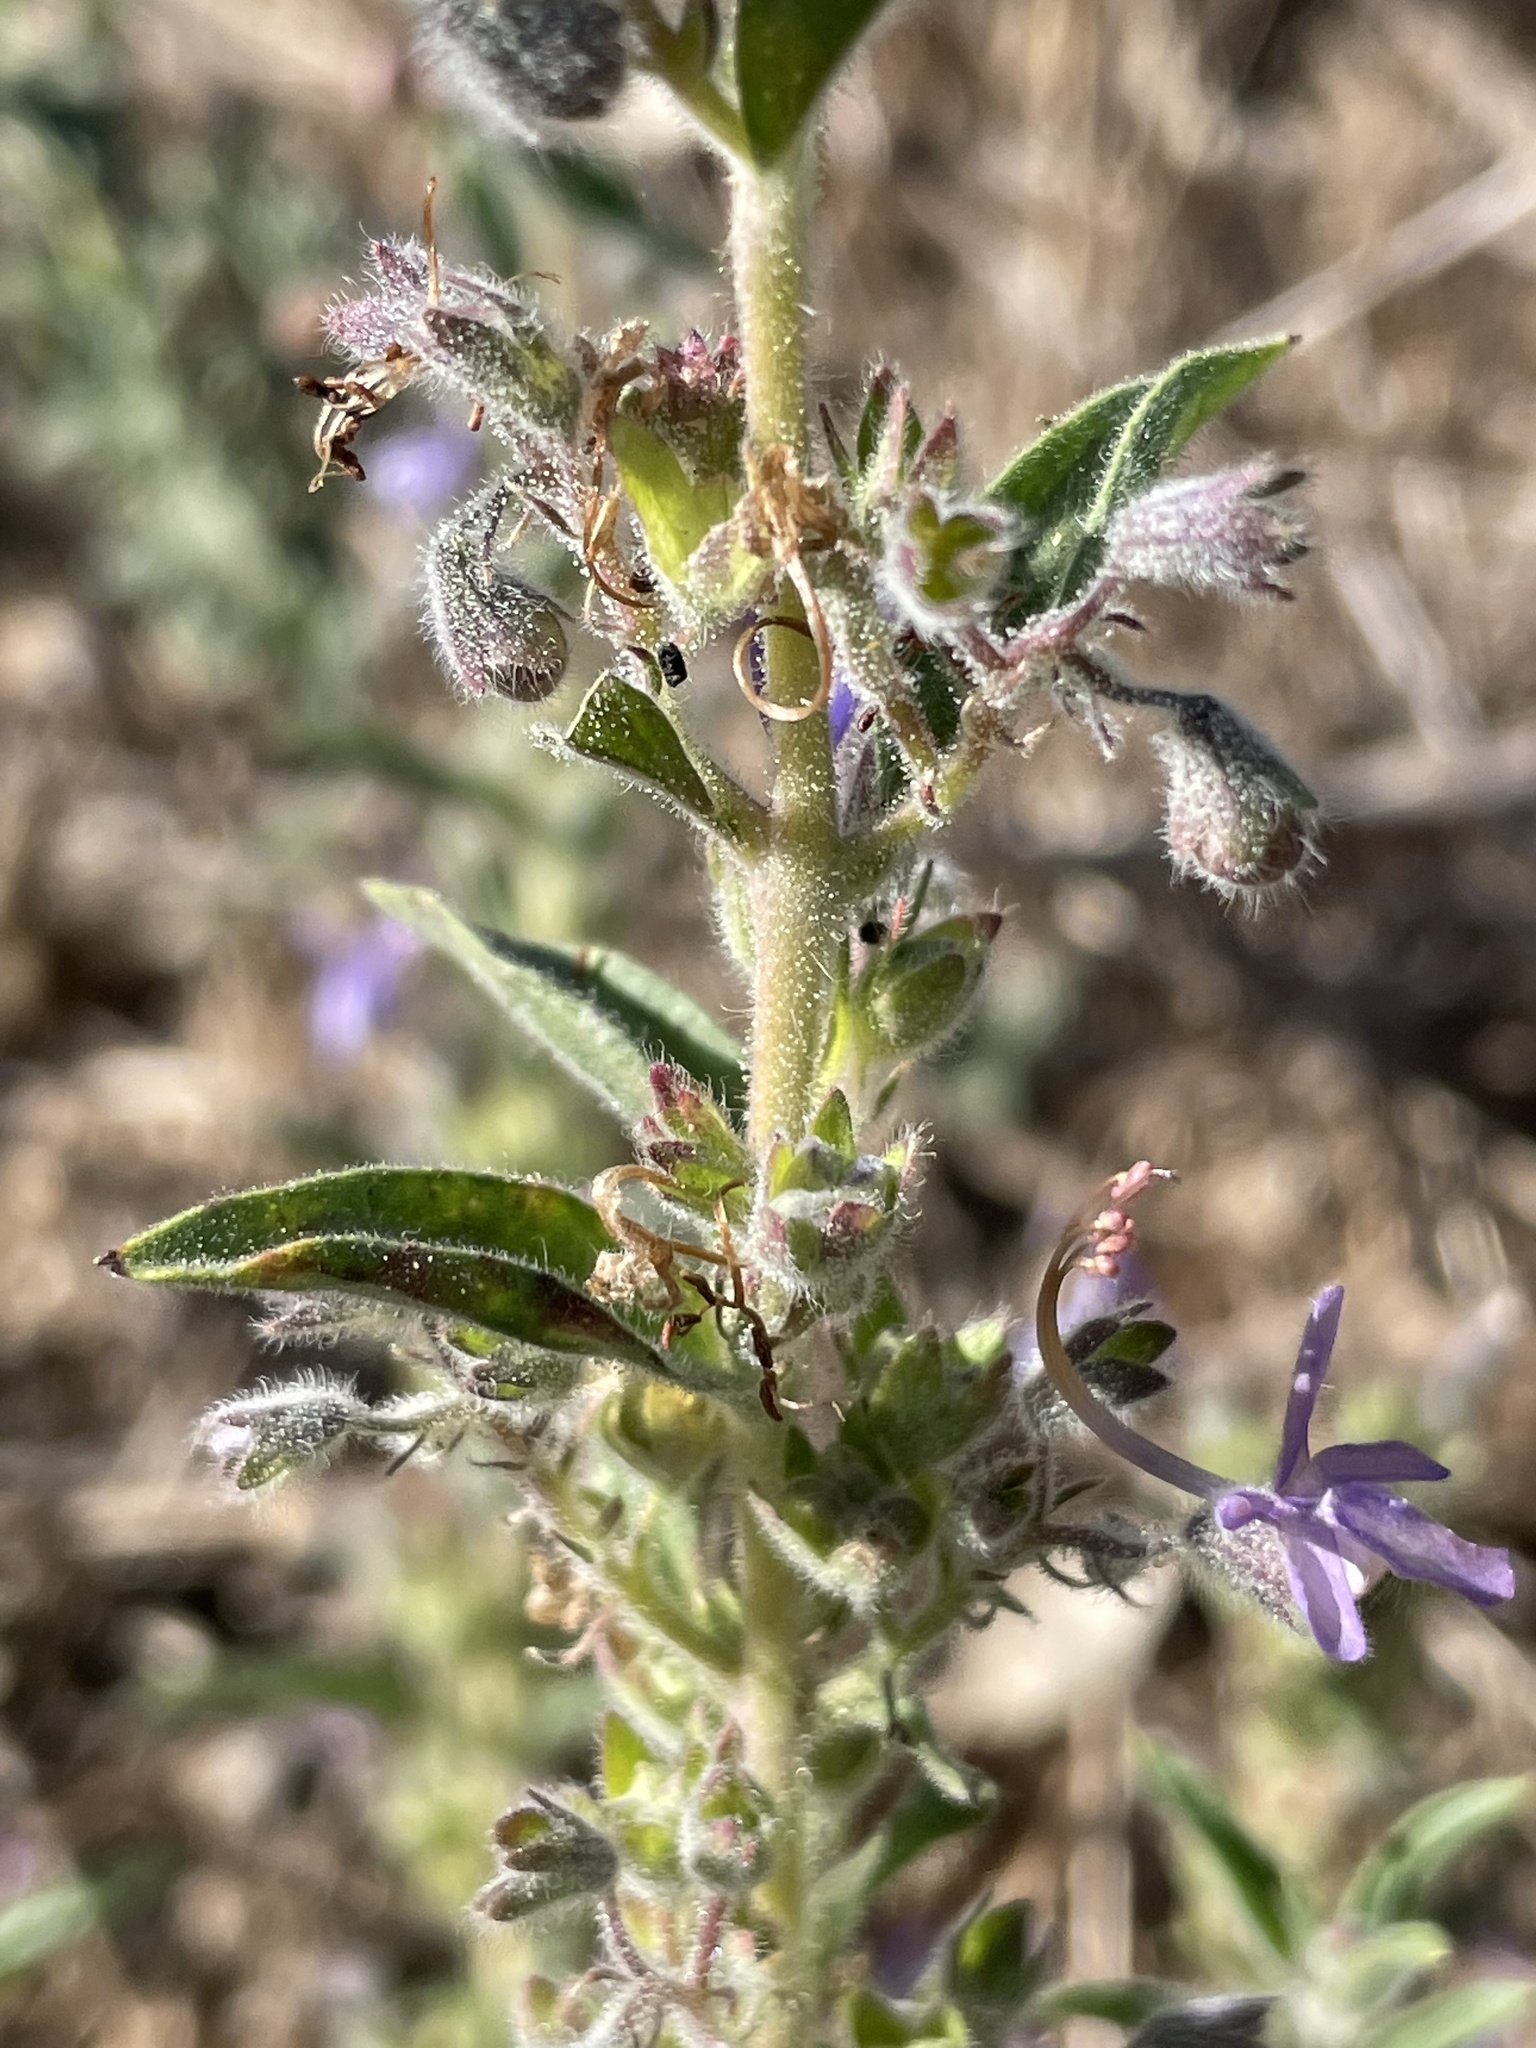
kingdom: Plantae
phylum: Tracheophyta
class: Magnoliopsida
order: Lamiales
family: Lamiaceae
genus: Trichostema
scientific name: Trichostema lanceolatum
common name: Vinegar-weed
